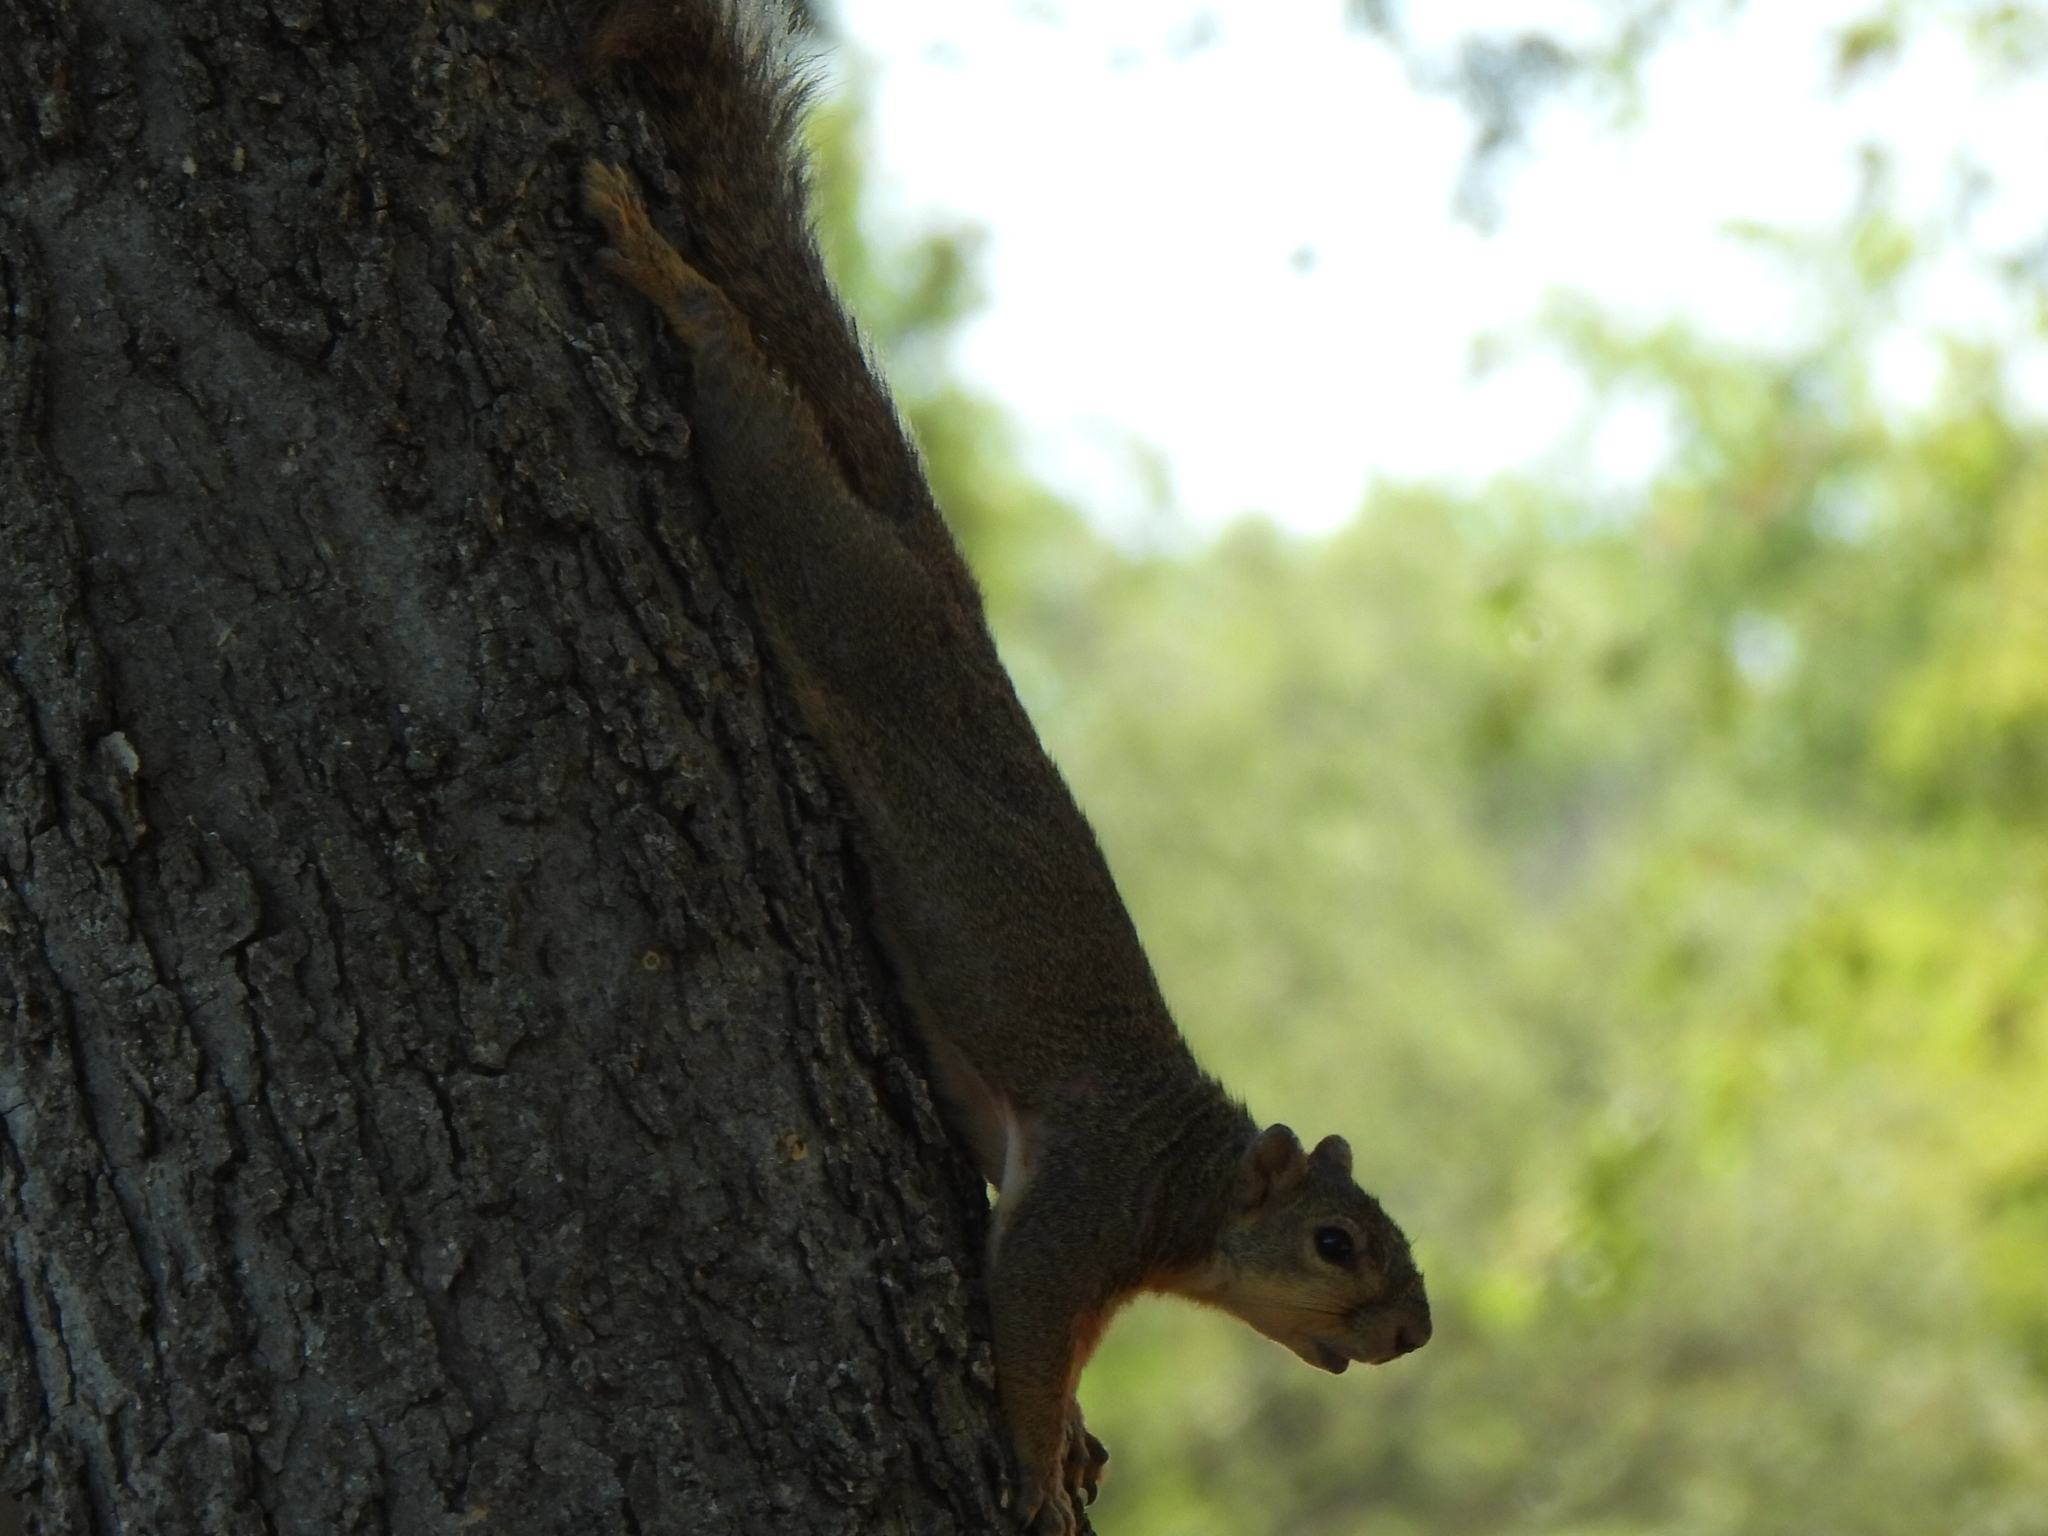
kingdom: Animalia
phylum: Chordata
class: Mammalia
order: Rodentia
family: Sciuridae
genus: Sciurus
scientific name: Sciurus niger
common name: Fox squirrel
